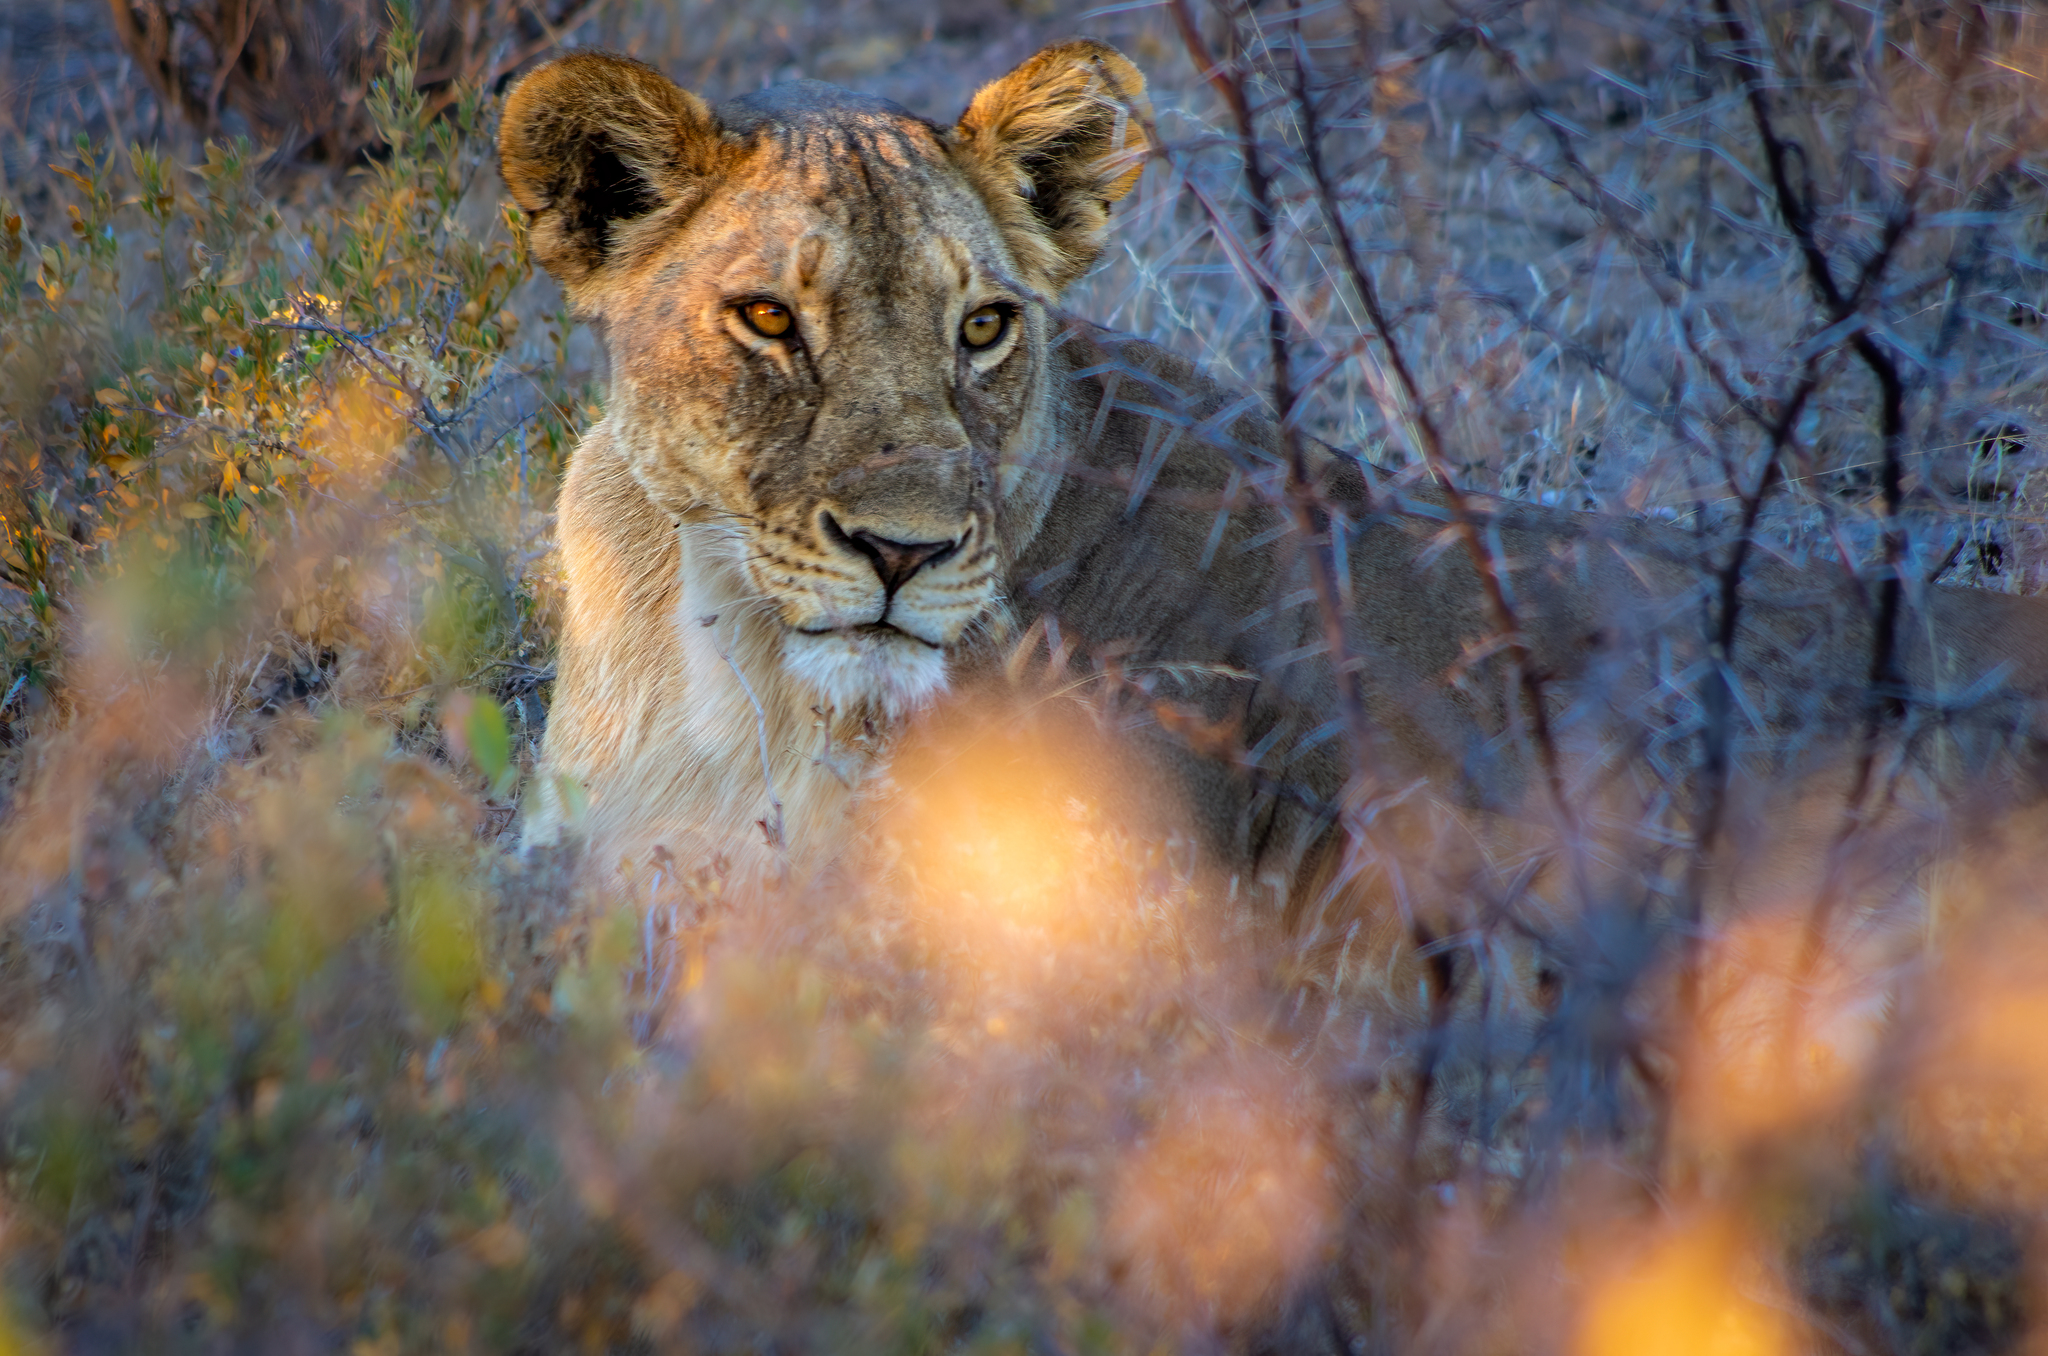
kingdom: Animalia
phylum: Chordata
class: Mammalia
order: Carnivora
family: Felidae
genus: Panthera
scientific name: Panthera leo
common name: Lion
